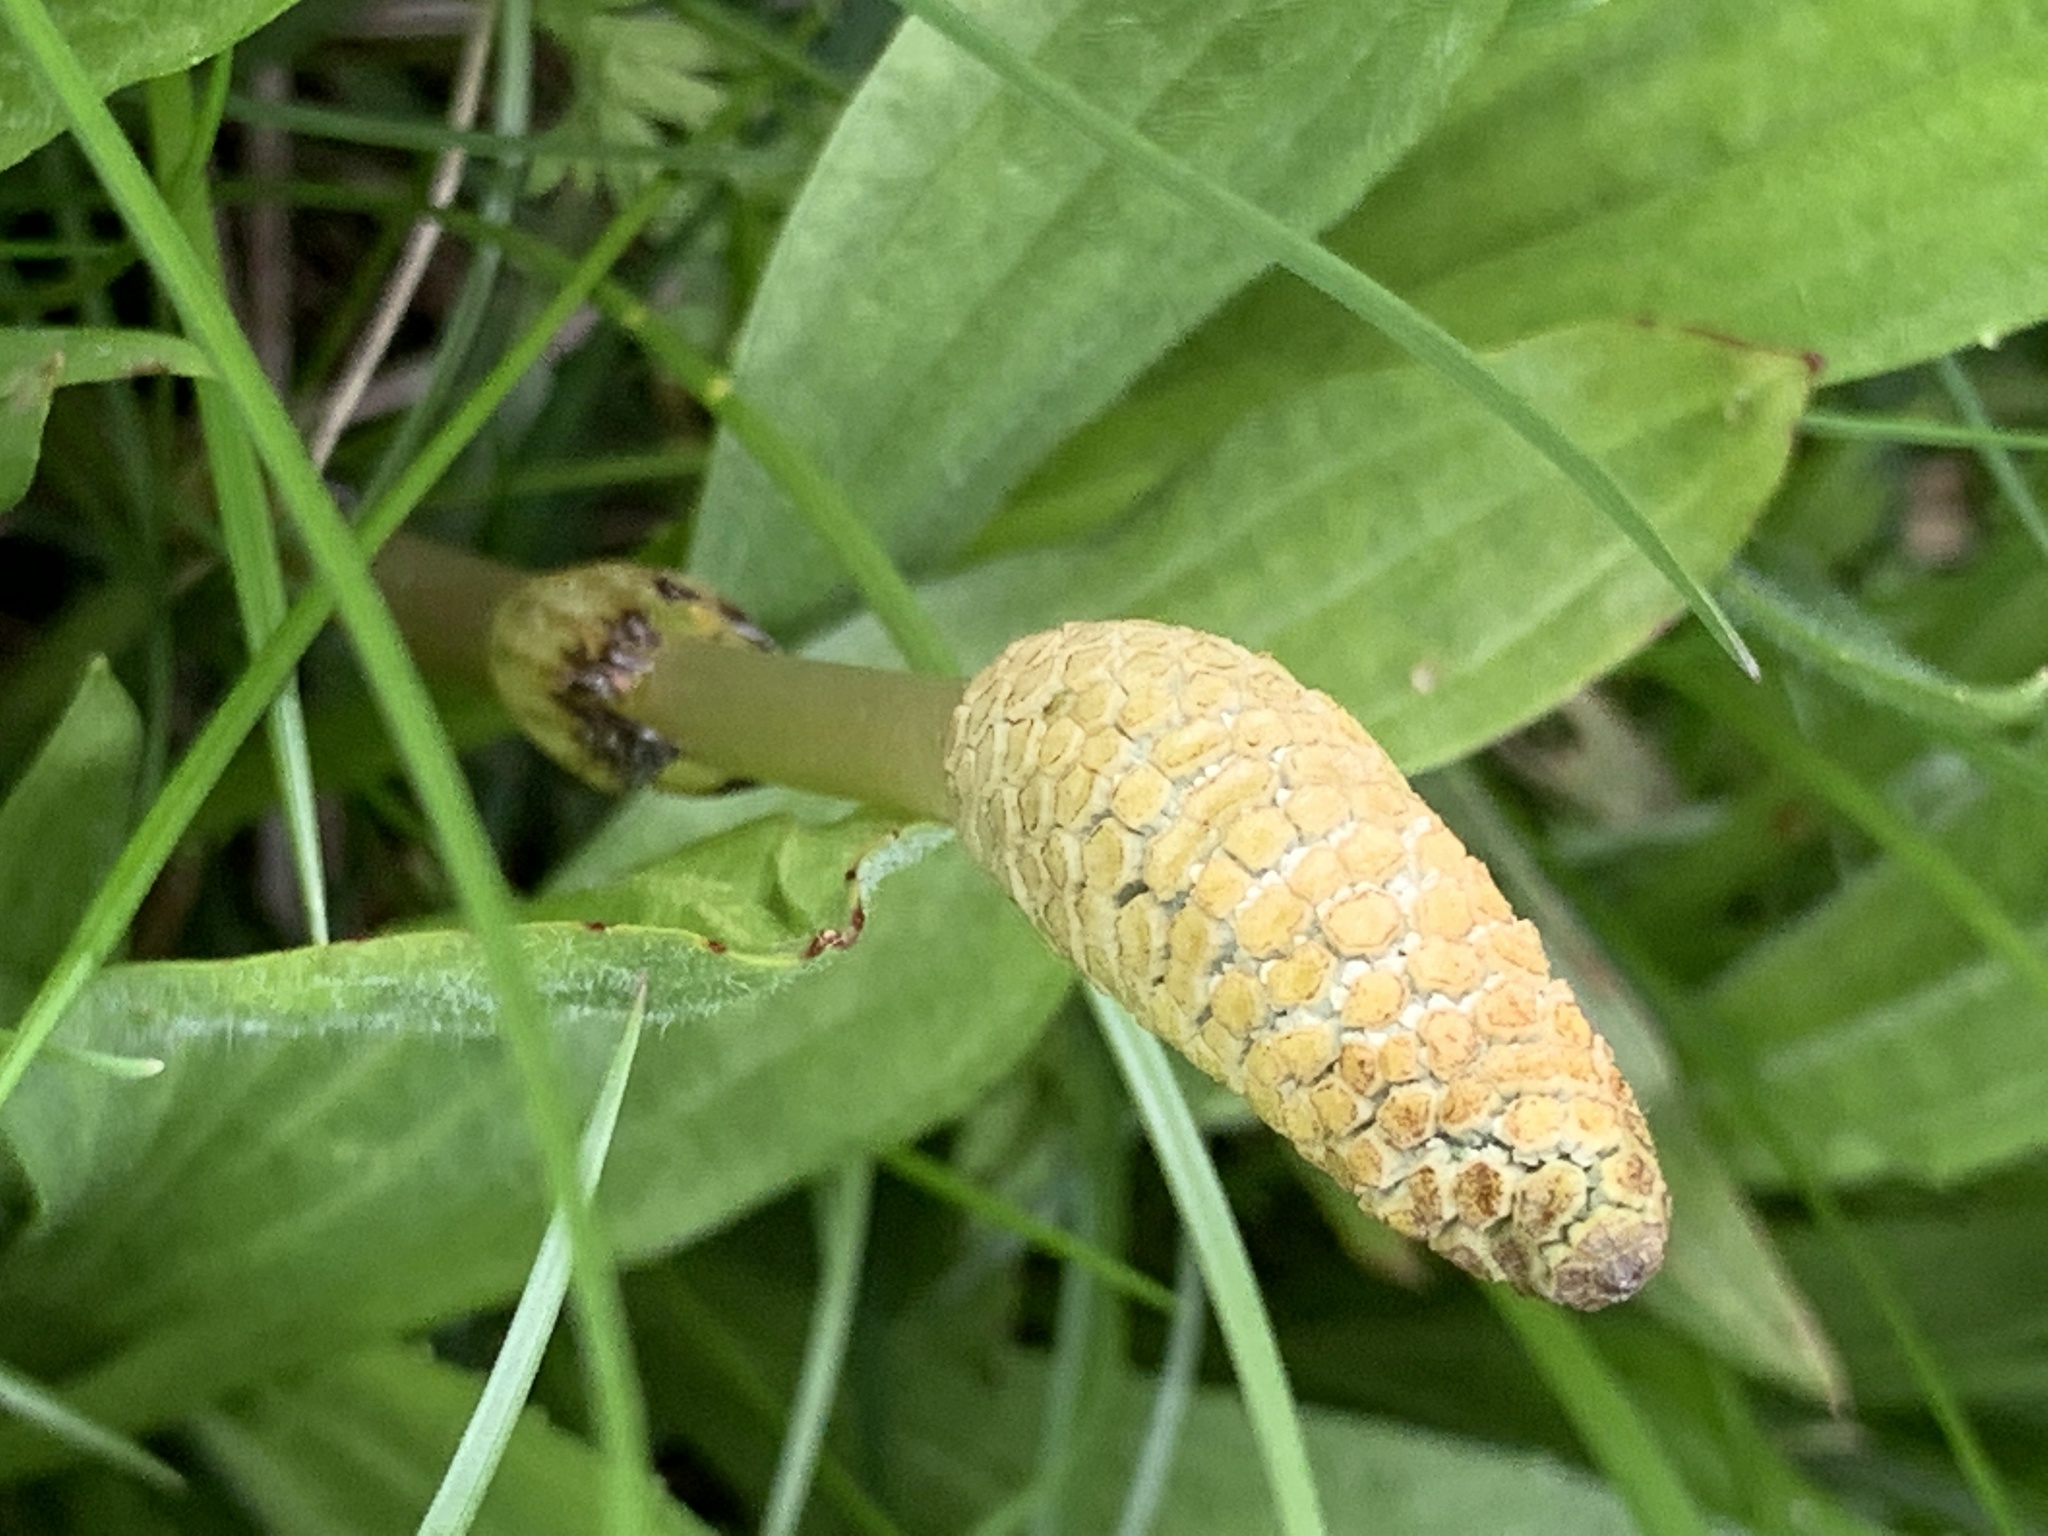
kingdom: Plantae
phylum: Tracheophyta
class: Polypodiopsida
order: Equisetales
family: Equisetaceae
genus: Equisetum
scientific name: Equisetum arvense
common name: Field horsetail
